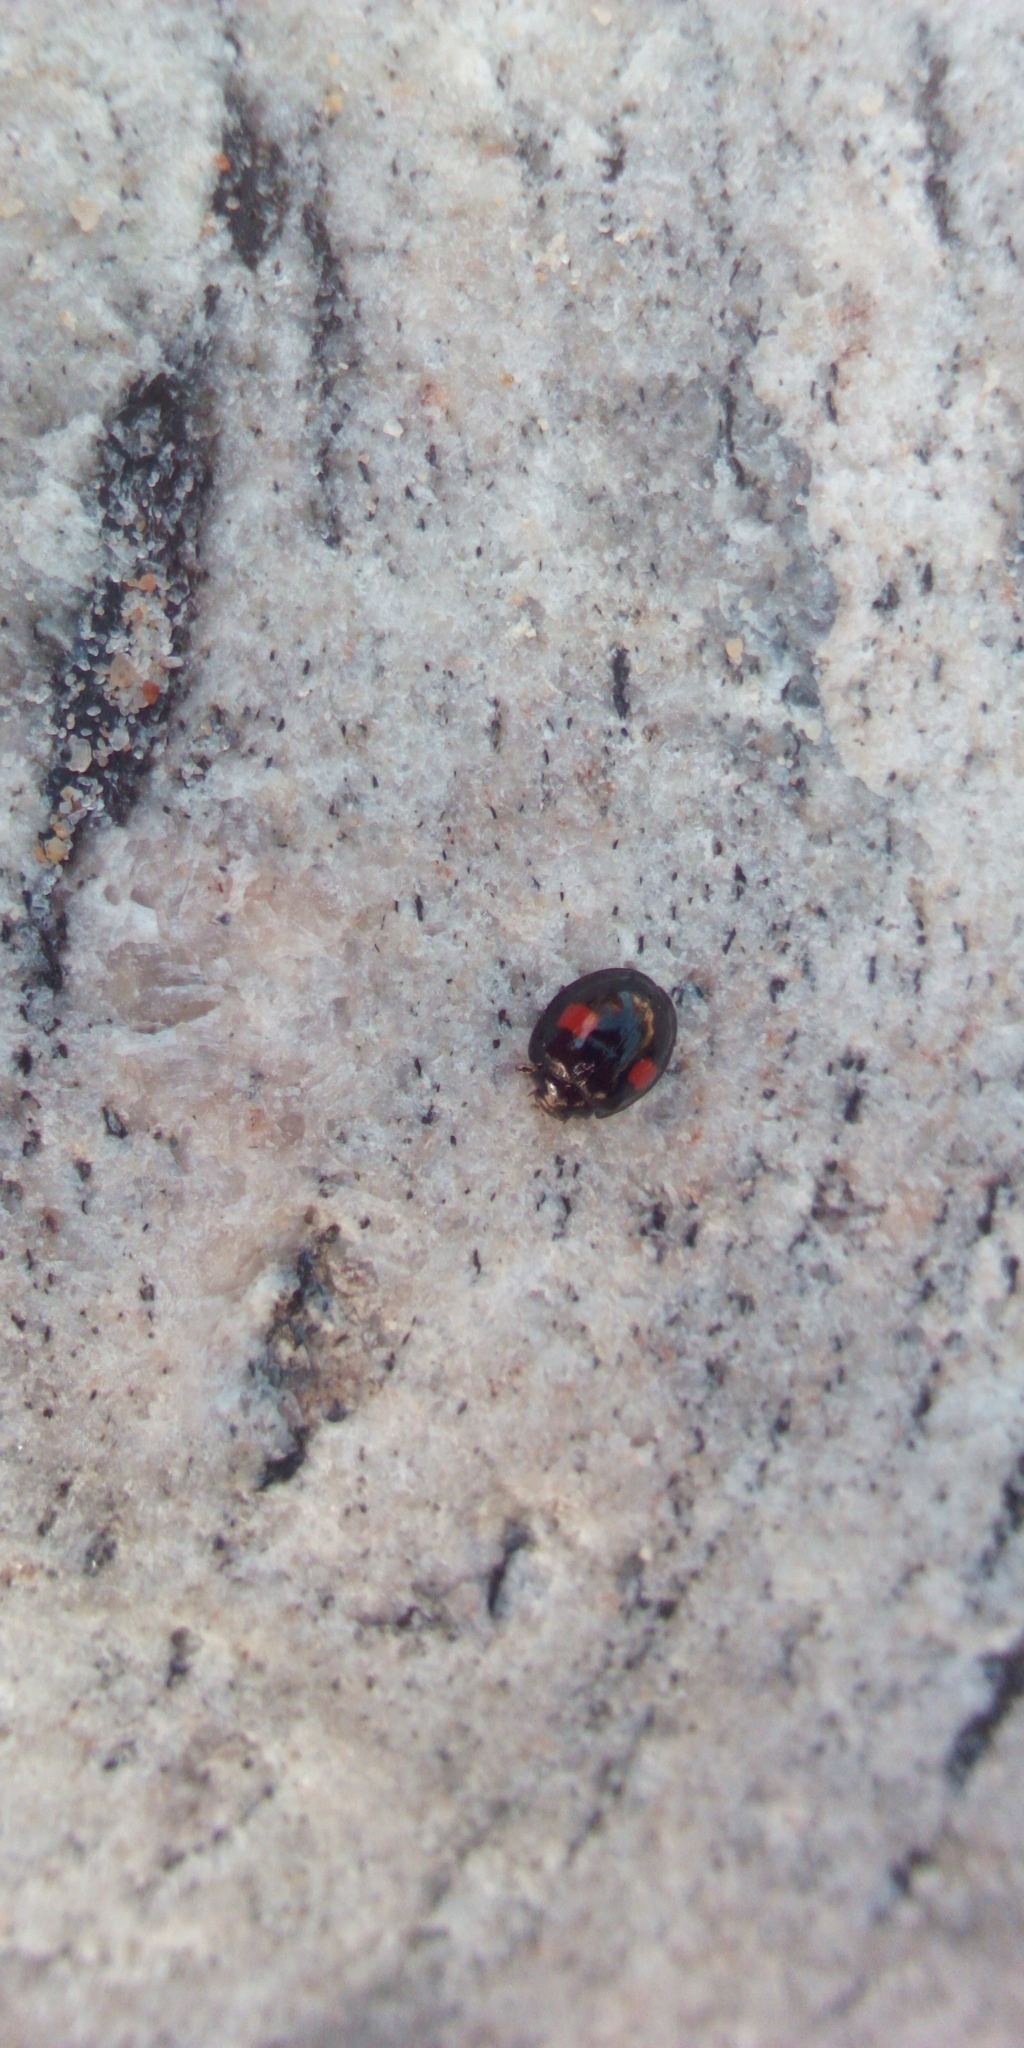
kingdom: Animalia
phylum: Arthropoda
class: Insecta
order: Coleoptera
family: Coccinellidae
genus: Chilocorus
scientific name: Chilocorus renipustulatus
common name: Kidney-spot ladybird
